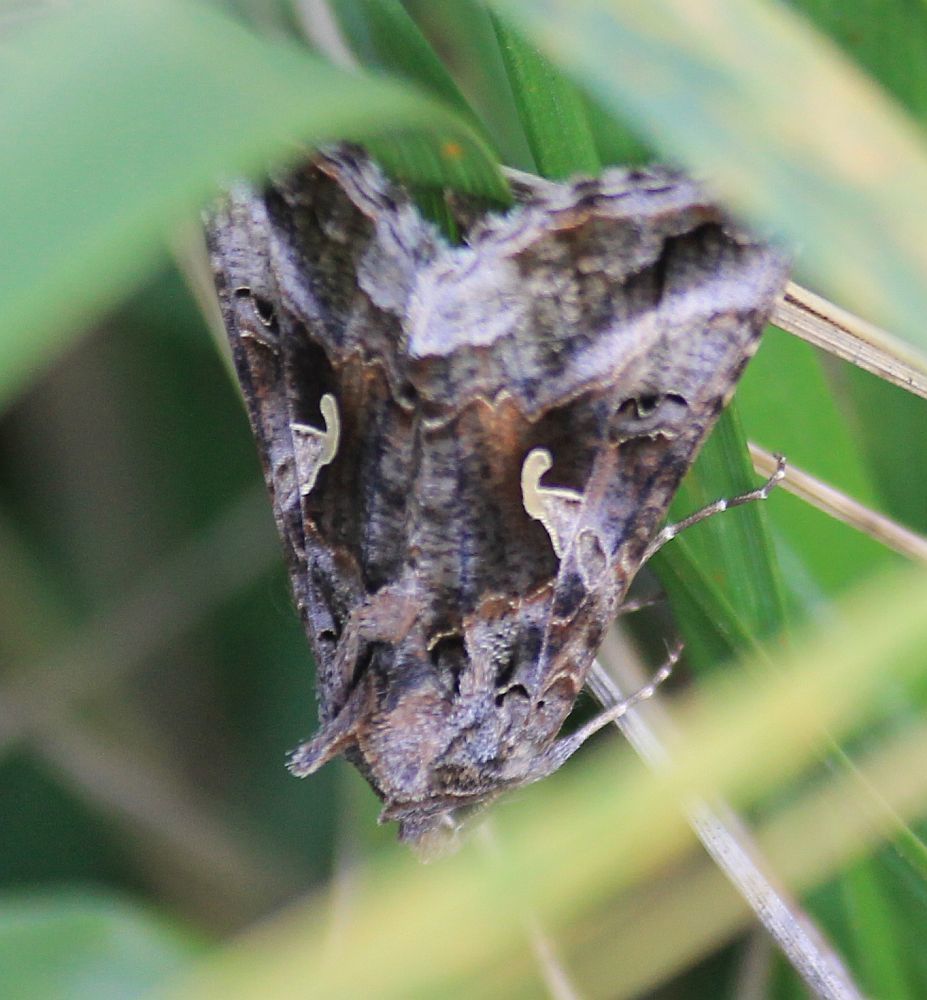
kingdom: Animalia
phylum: Arthropoda
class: Insecta
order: Lepidoptera
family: Noctuidae
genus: Autographa
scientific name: Autographa gamma
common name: Silver y
